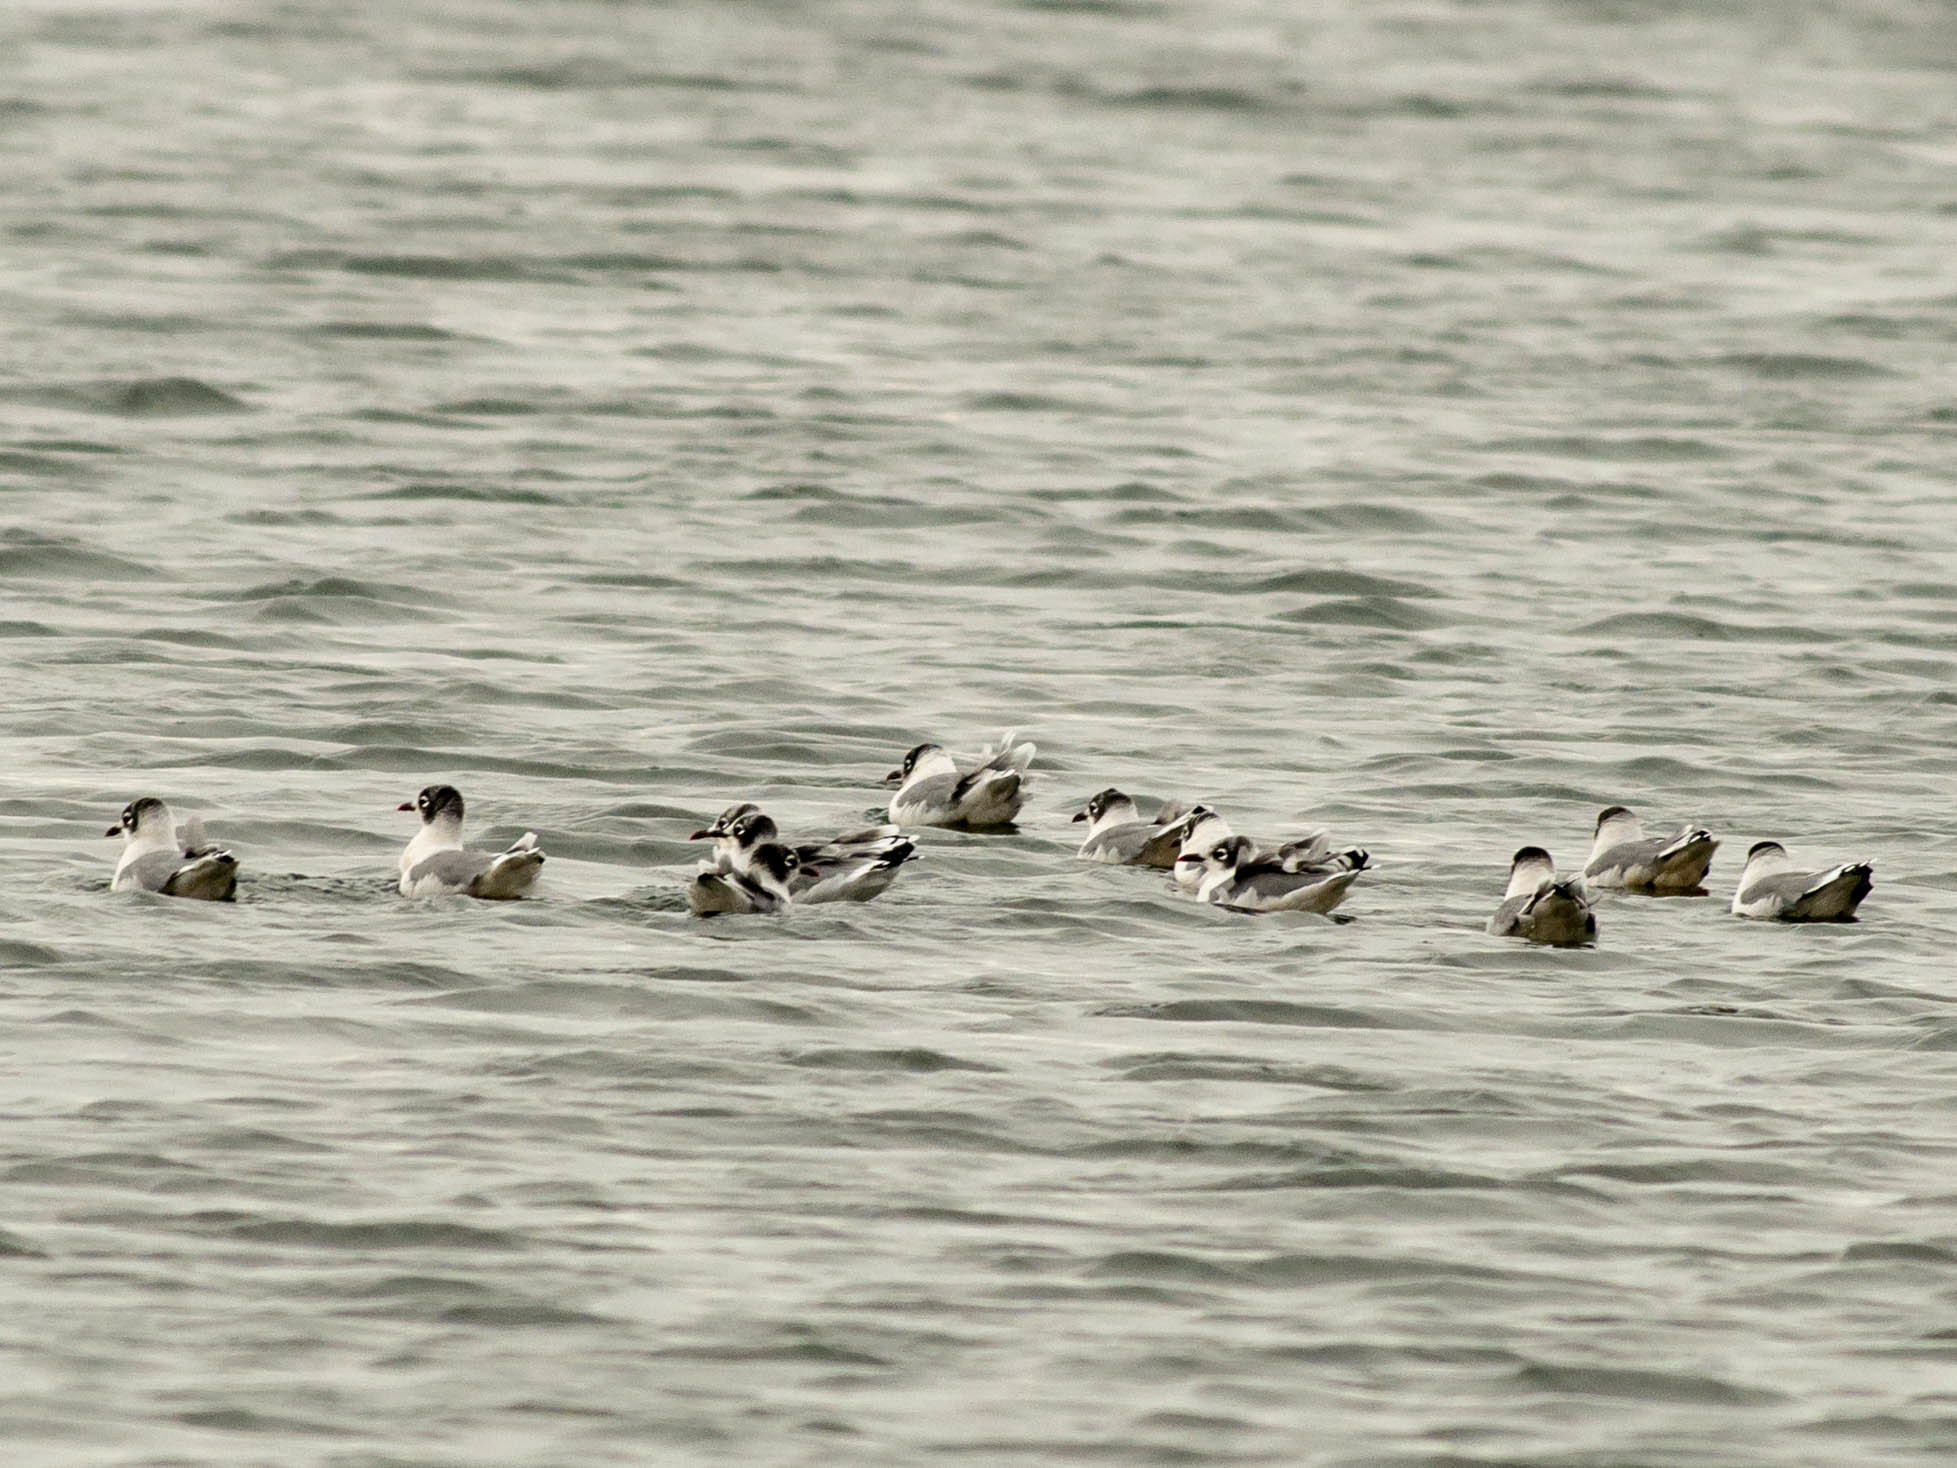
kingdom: Animalia
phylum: Chordata
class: Aves
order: Charadriiformes
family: Laridae
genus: Leucophaeus
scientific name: Leucophaeus pipixcan
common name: Franklin's gull
